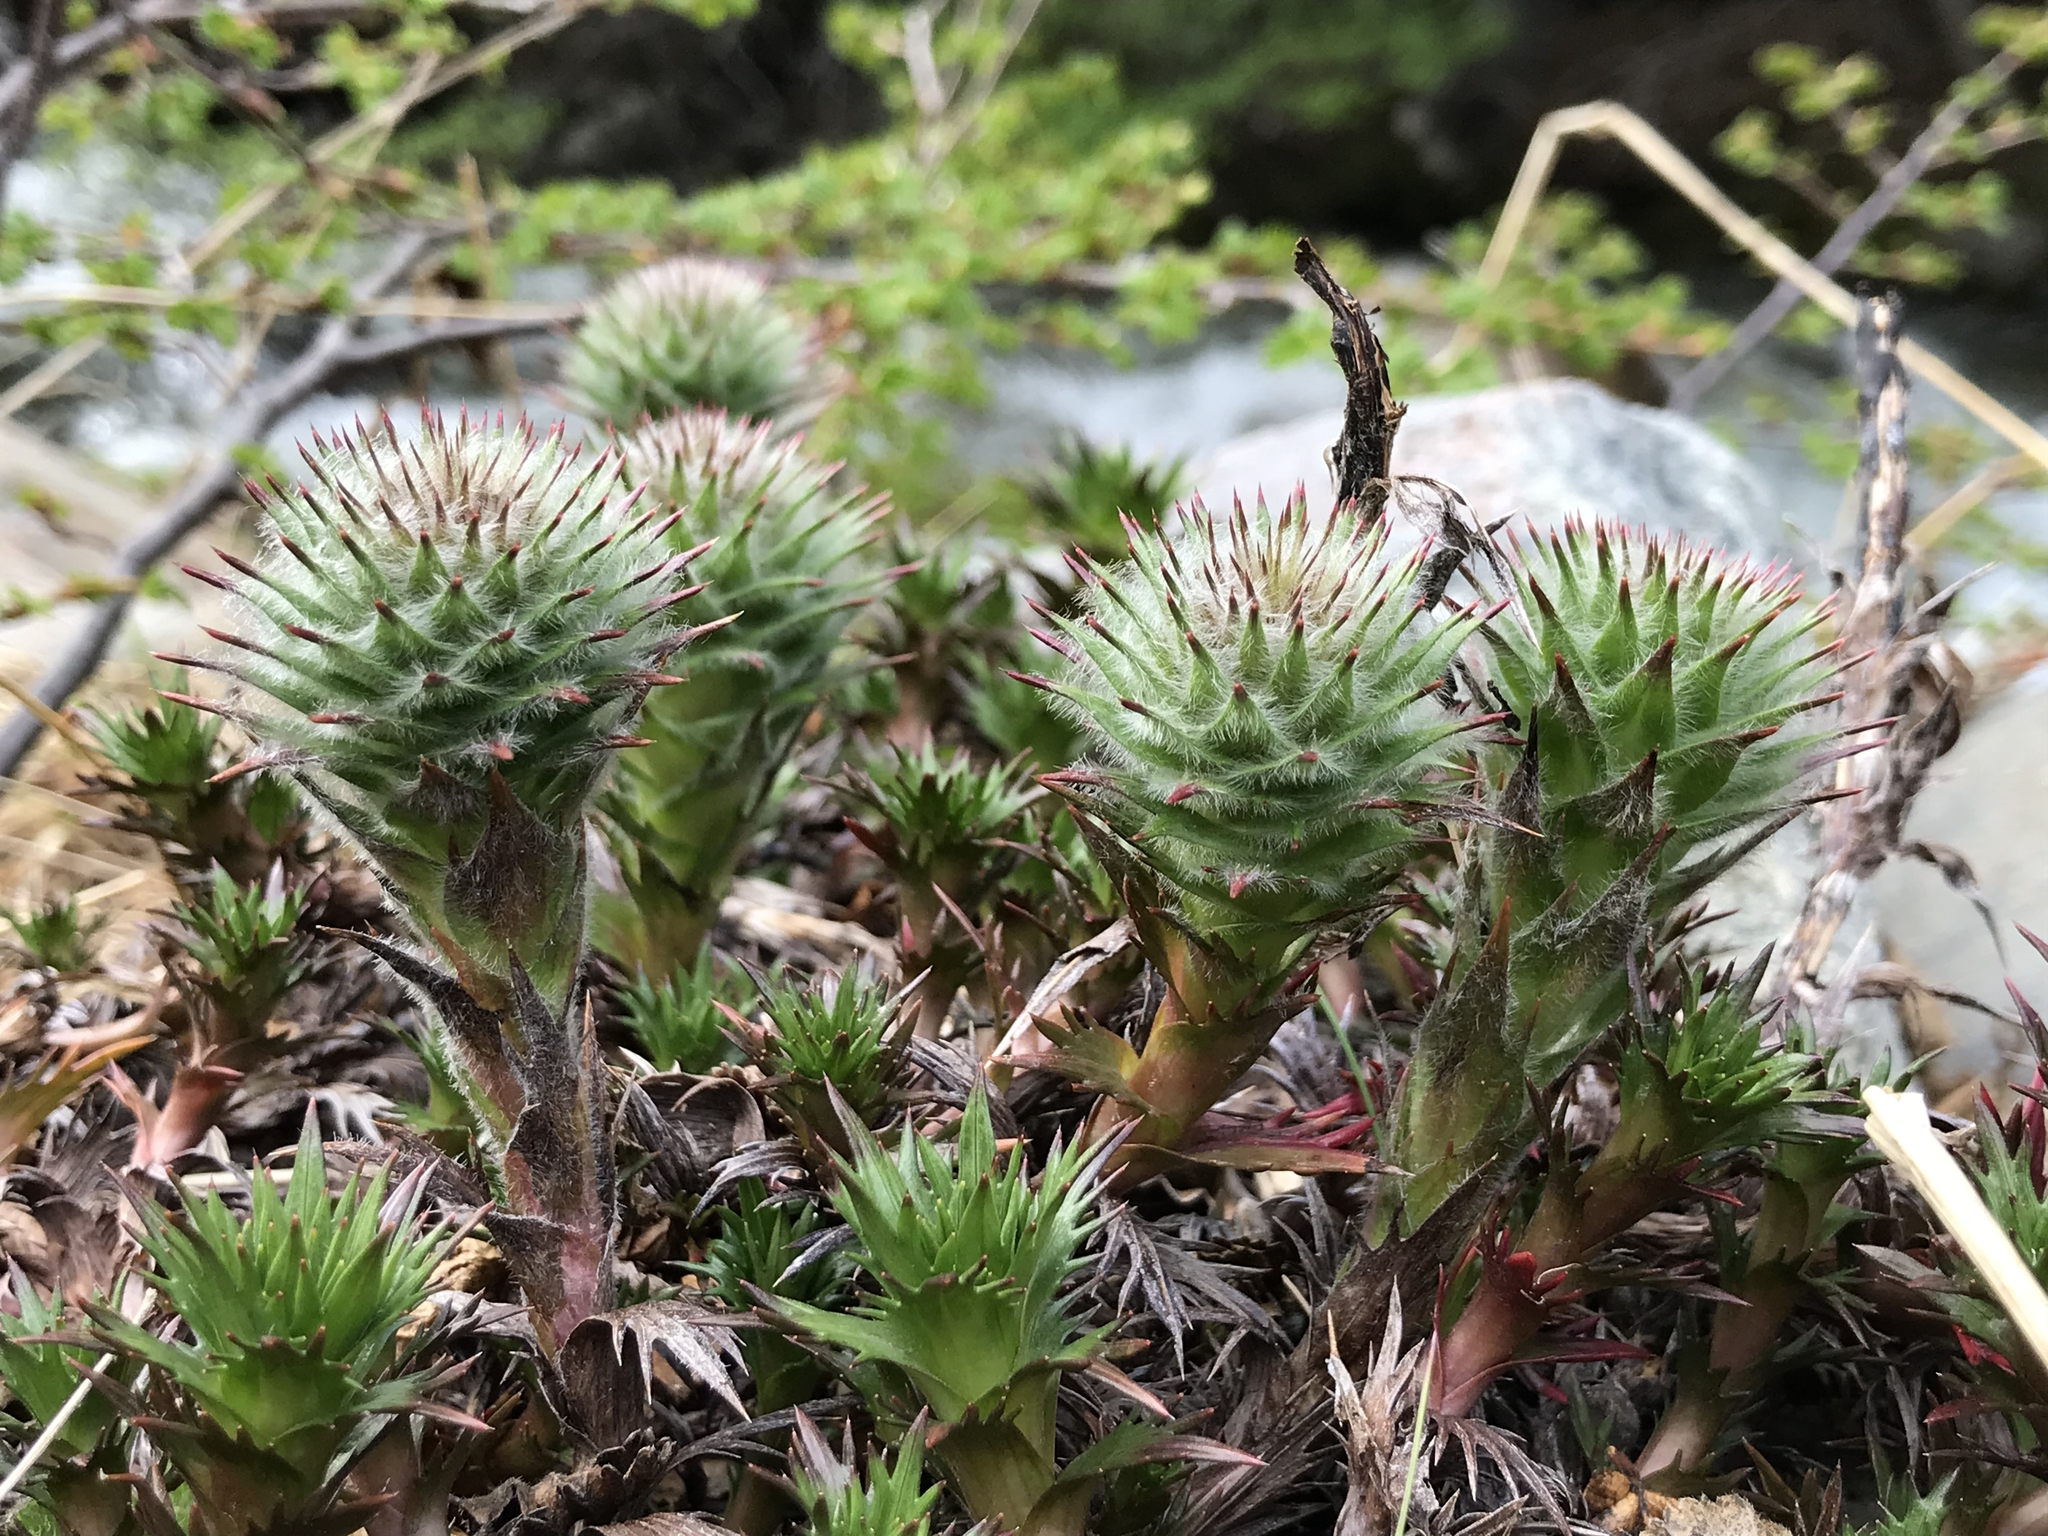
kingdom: Plantae
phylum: Tracheophyta
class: Magnoliopsida
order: Asterales
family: Asteraceae
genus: Nassauvia
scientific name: Nassauvia magellanica
